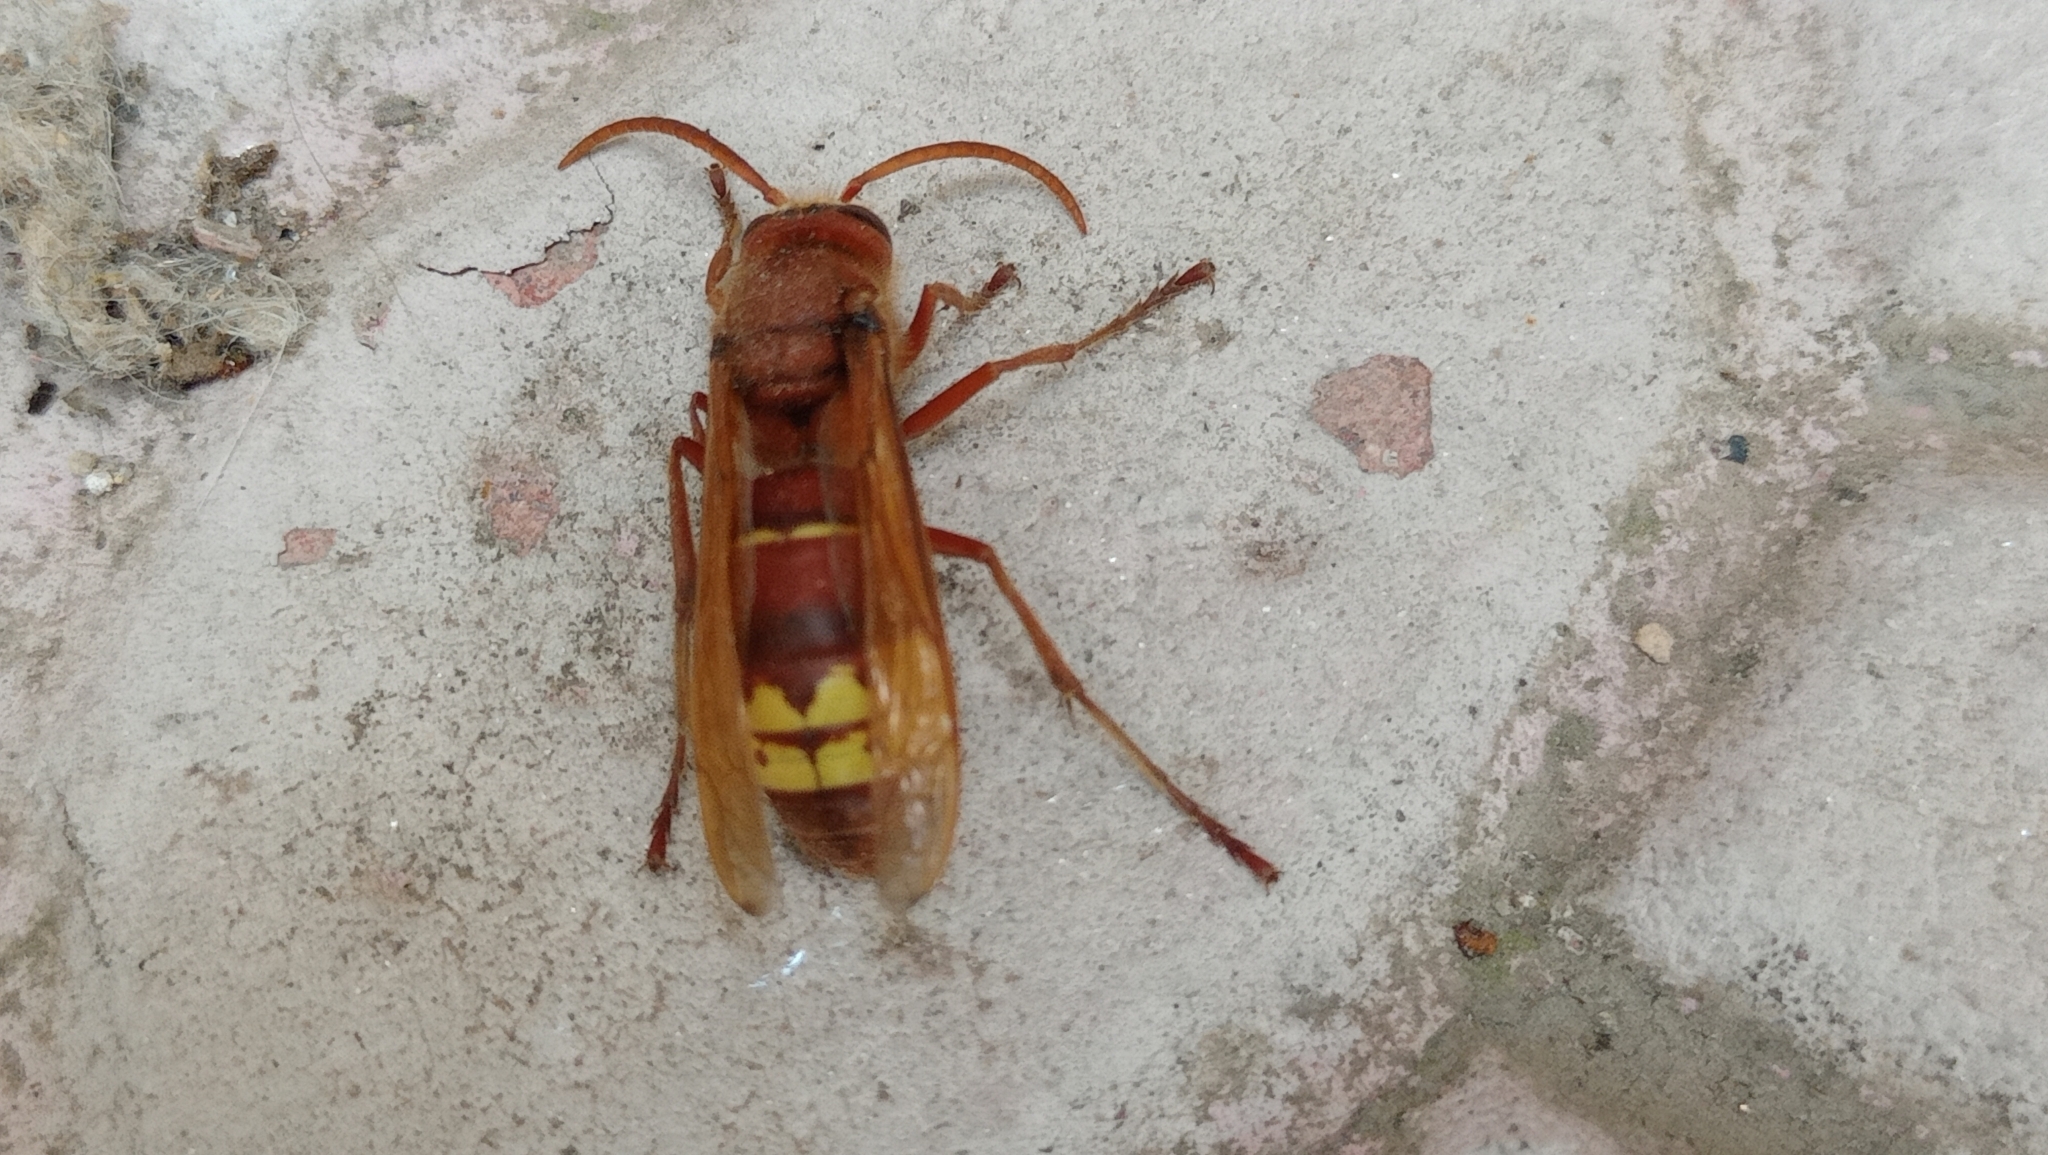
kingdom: Animalia
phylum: Arthropoda
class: Insecta
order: Hymenoptera
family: Vespidae
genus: Vespa
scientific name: Vespa orientalis
